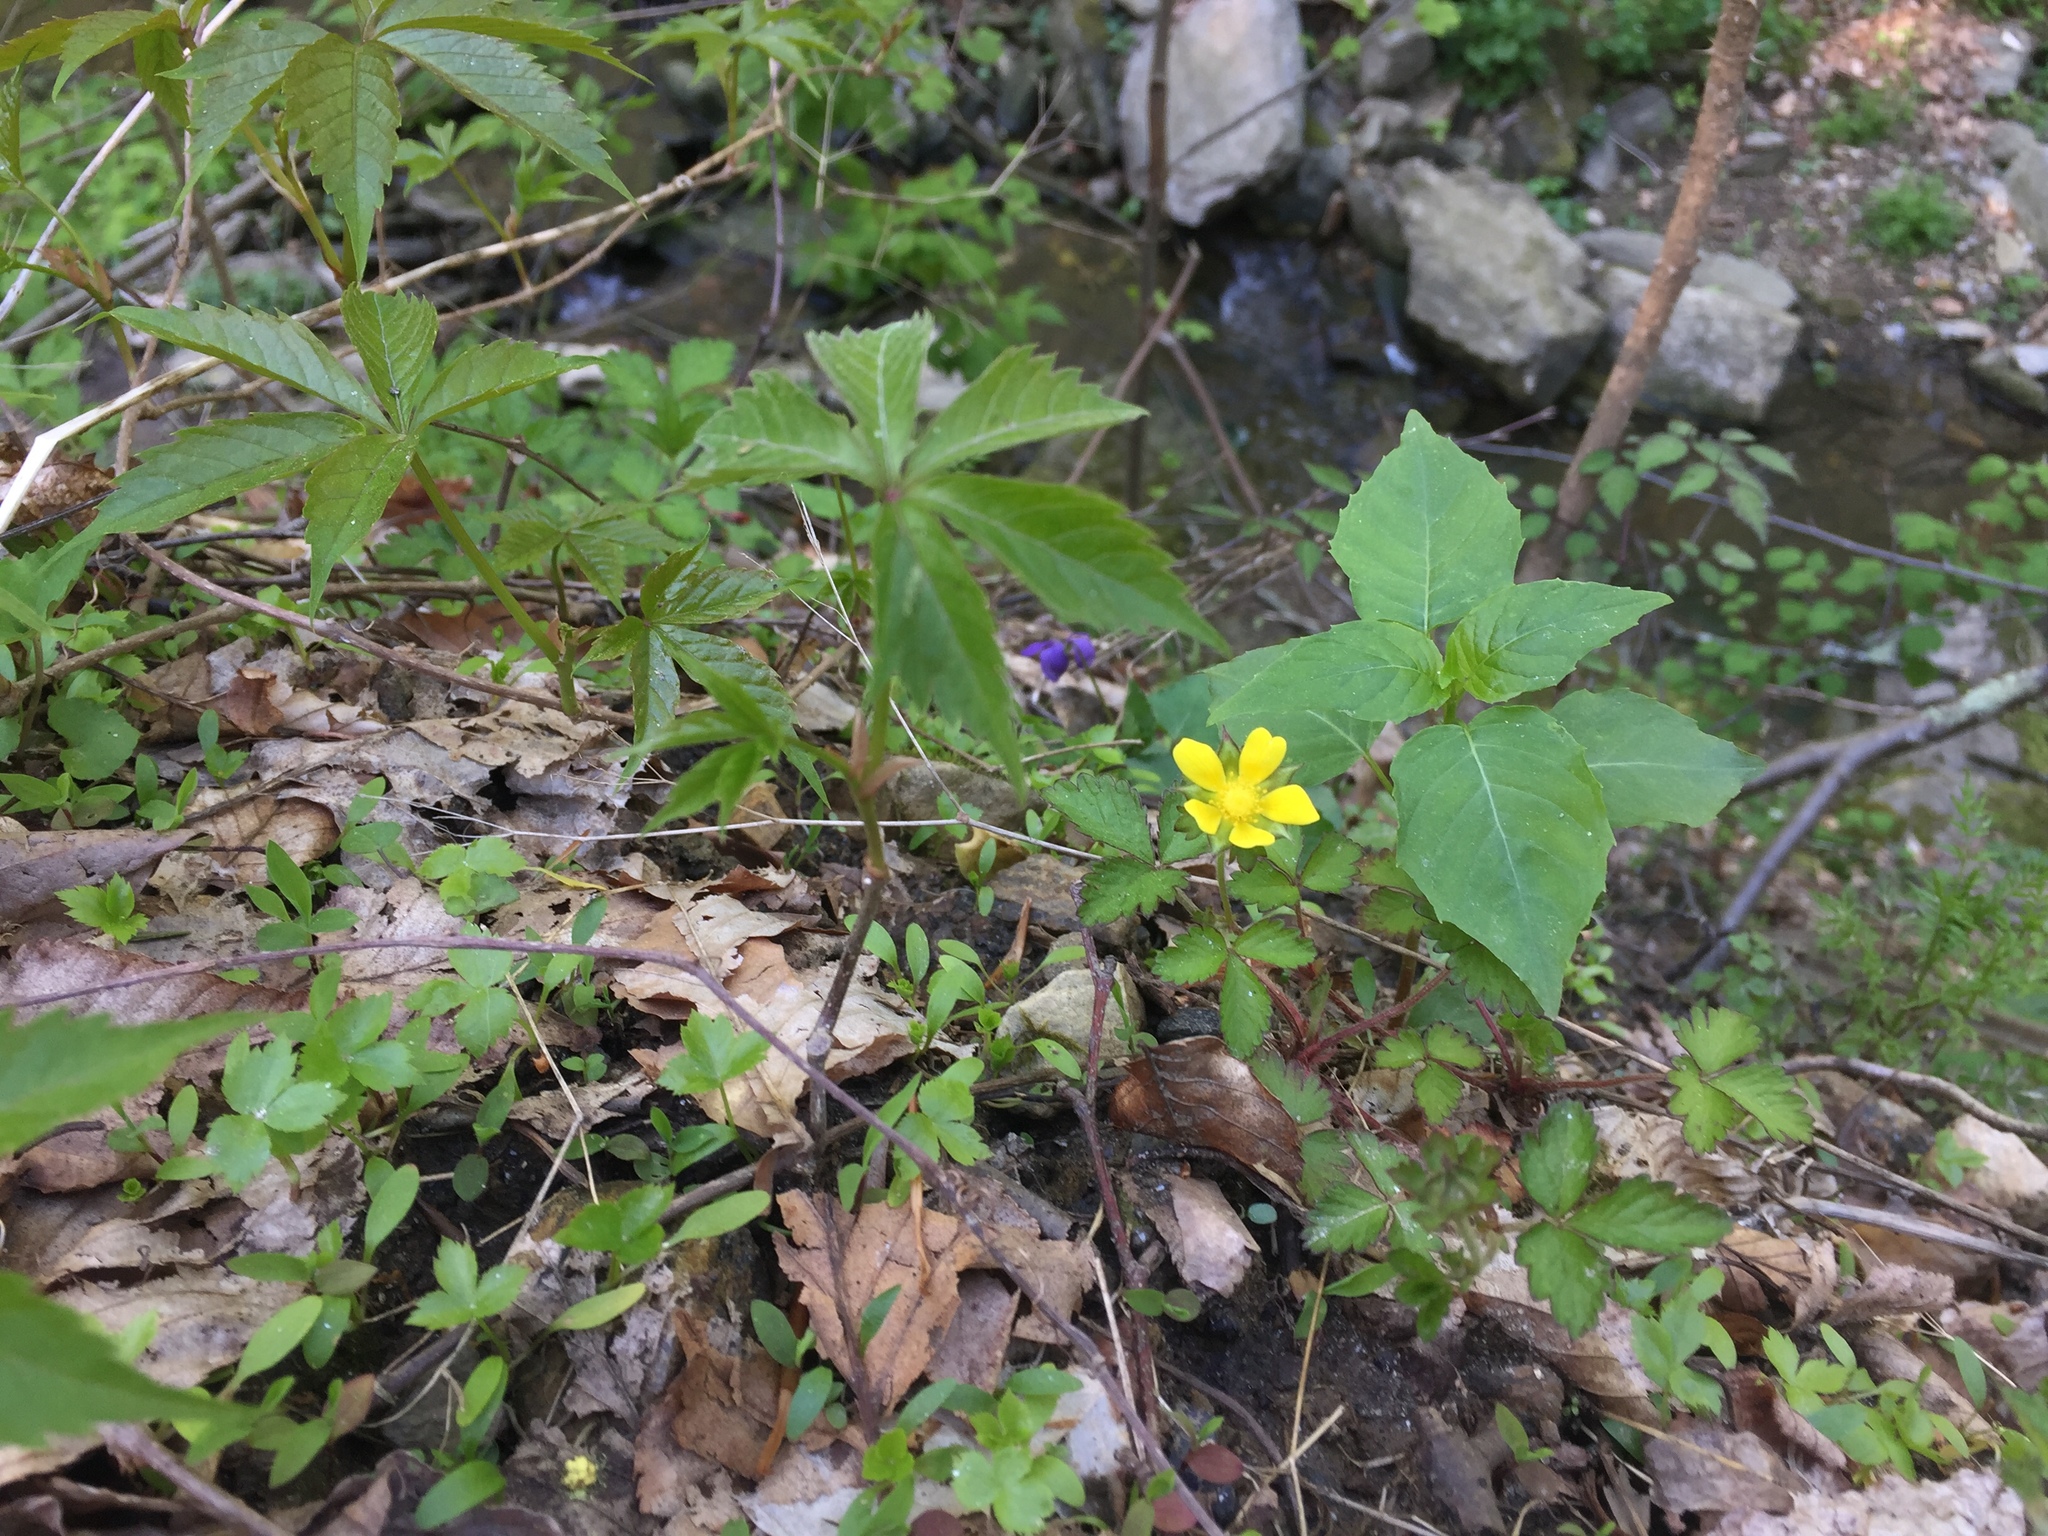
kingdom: Plantae
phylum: Tracheophyta
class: Magnoliopsida
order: Rosales
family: Rosaceae
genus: Potentilla
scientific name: Potentilla indica
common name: Yellow-flowered strawberry
